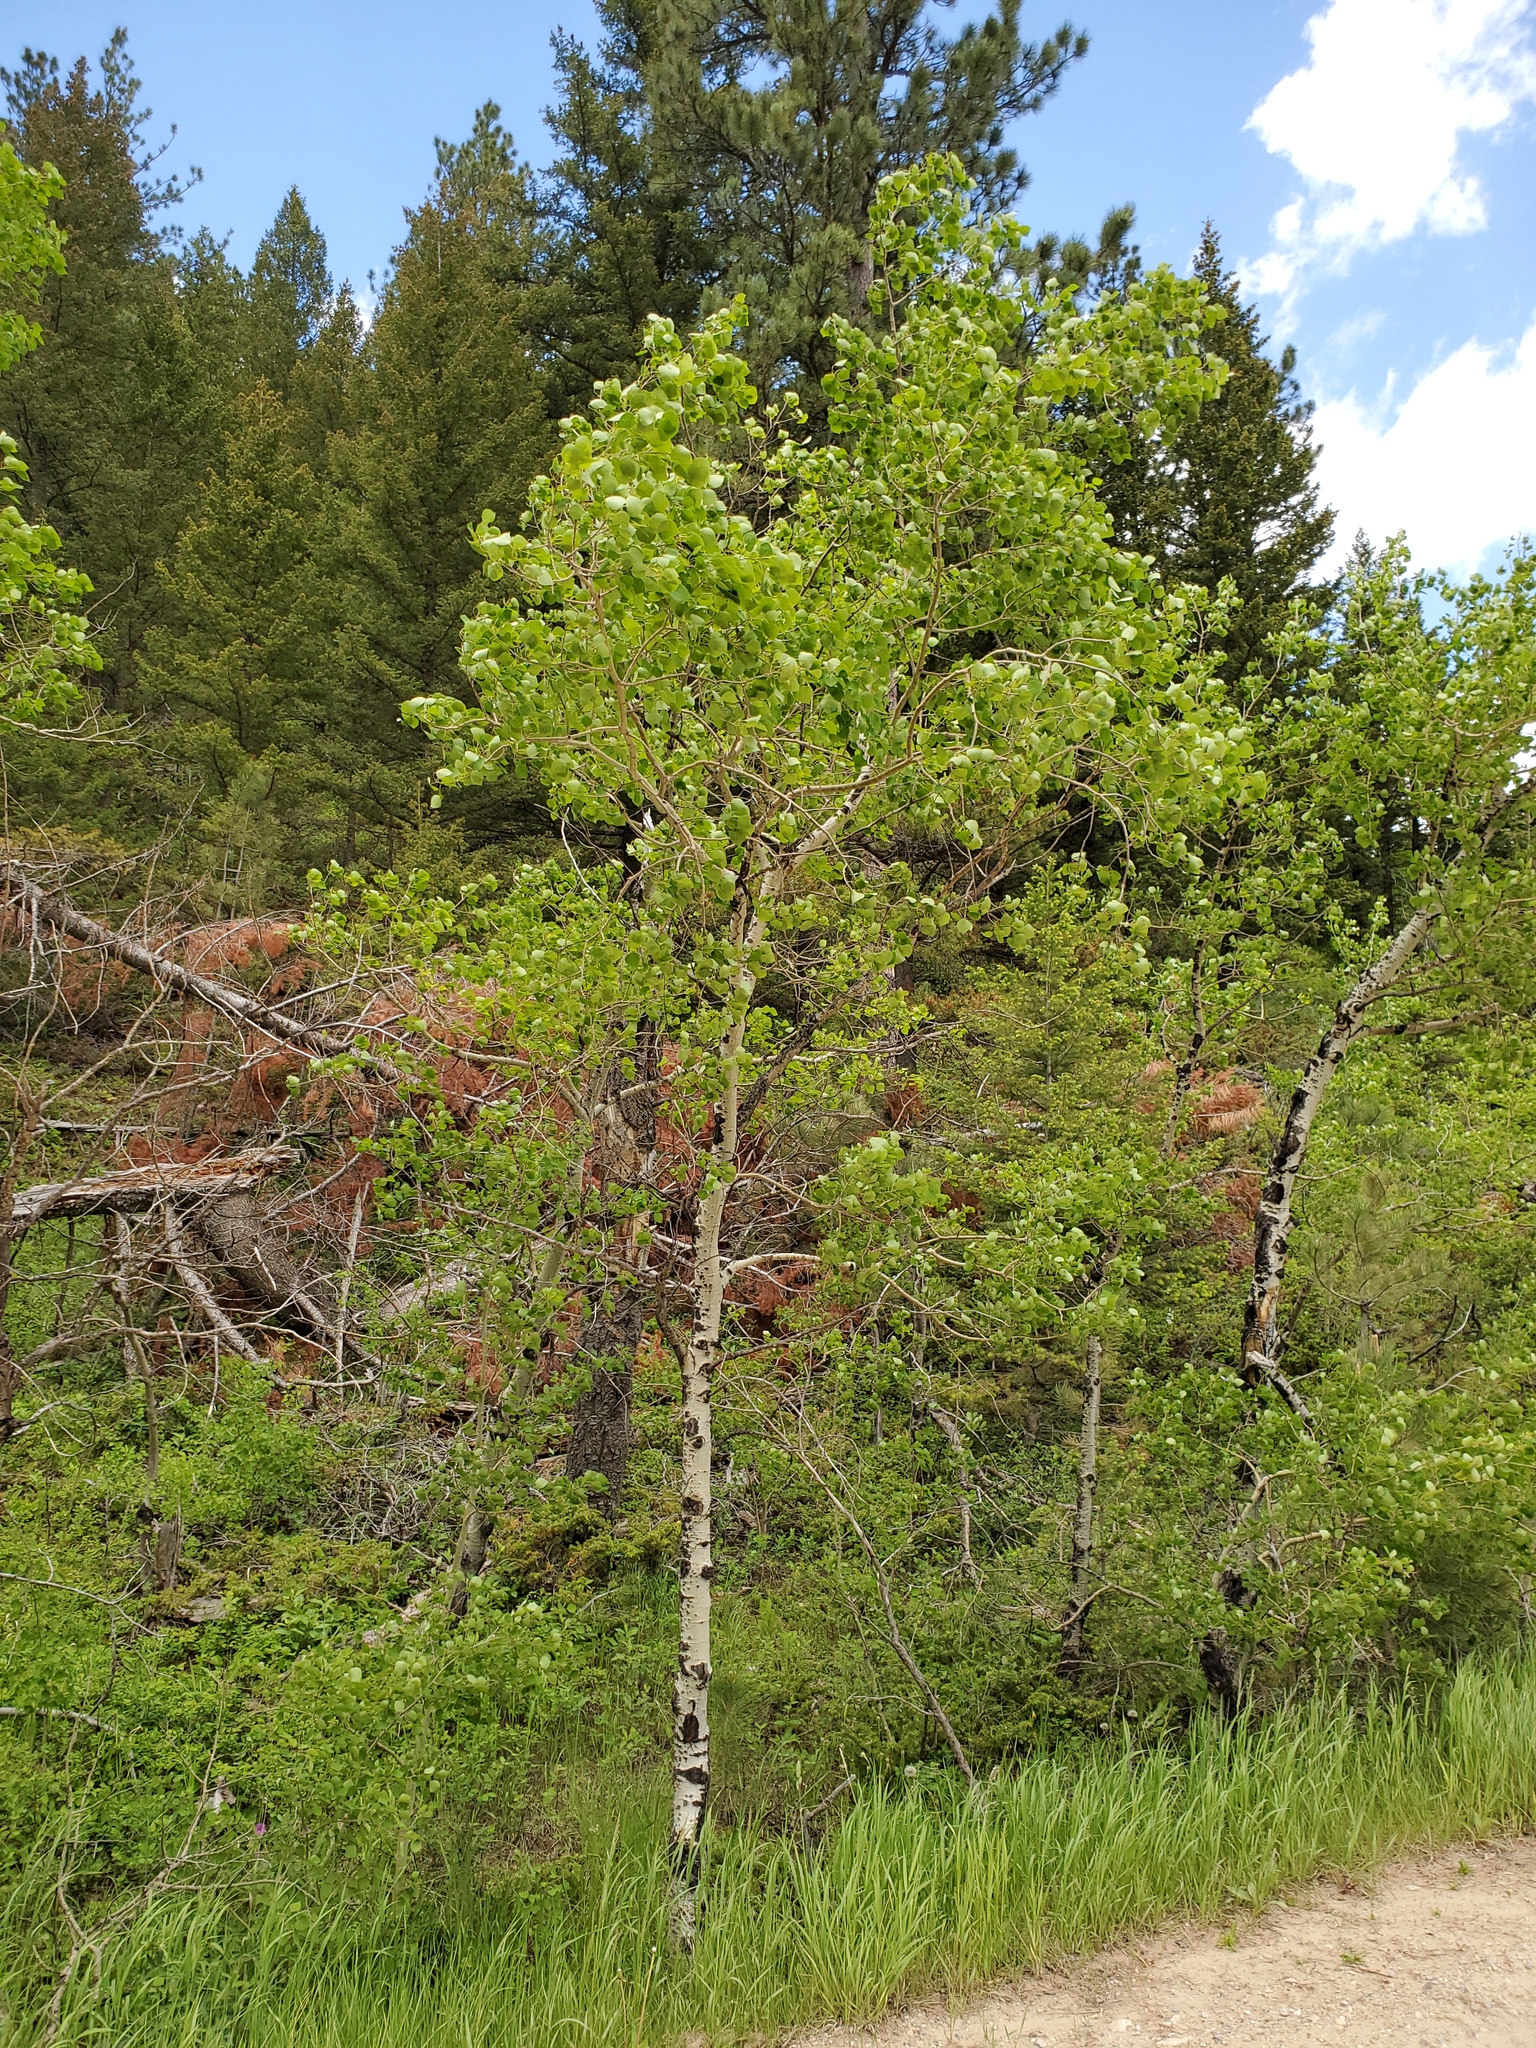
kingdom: Plantae
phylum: Tracheophyta
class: Magnoliopsida
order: Malpighiales
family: Salicaceae
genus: Populus
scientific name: Populus tremuloides
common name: Quaking aspen
